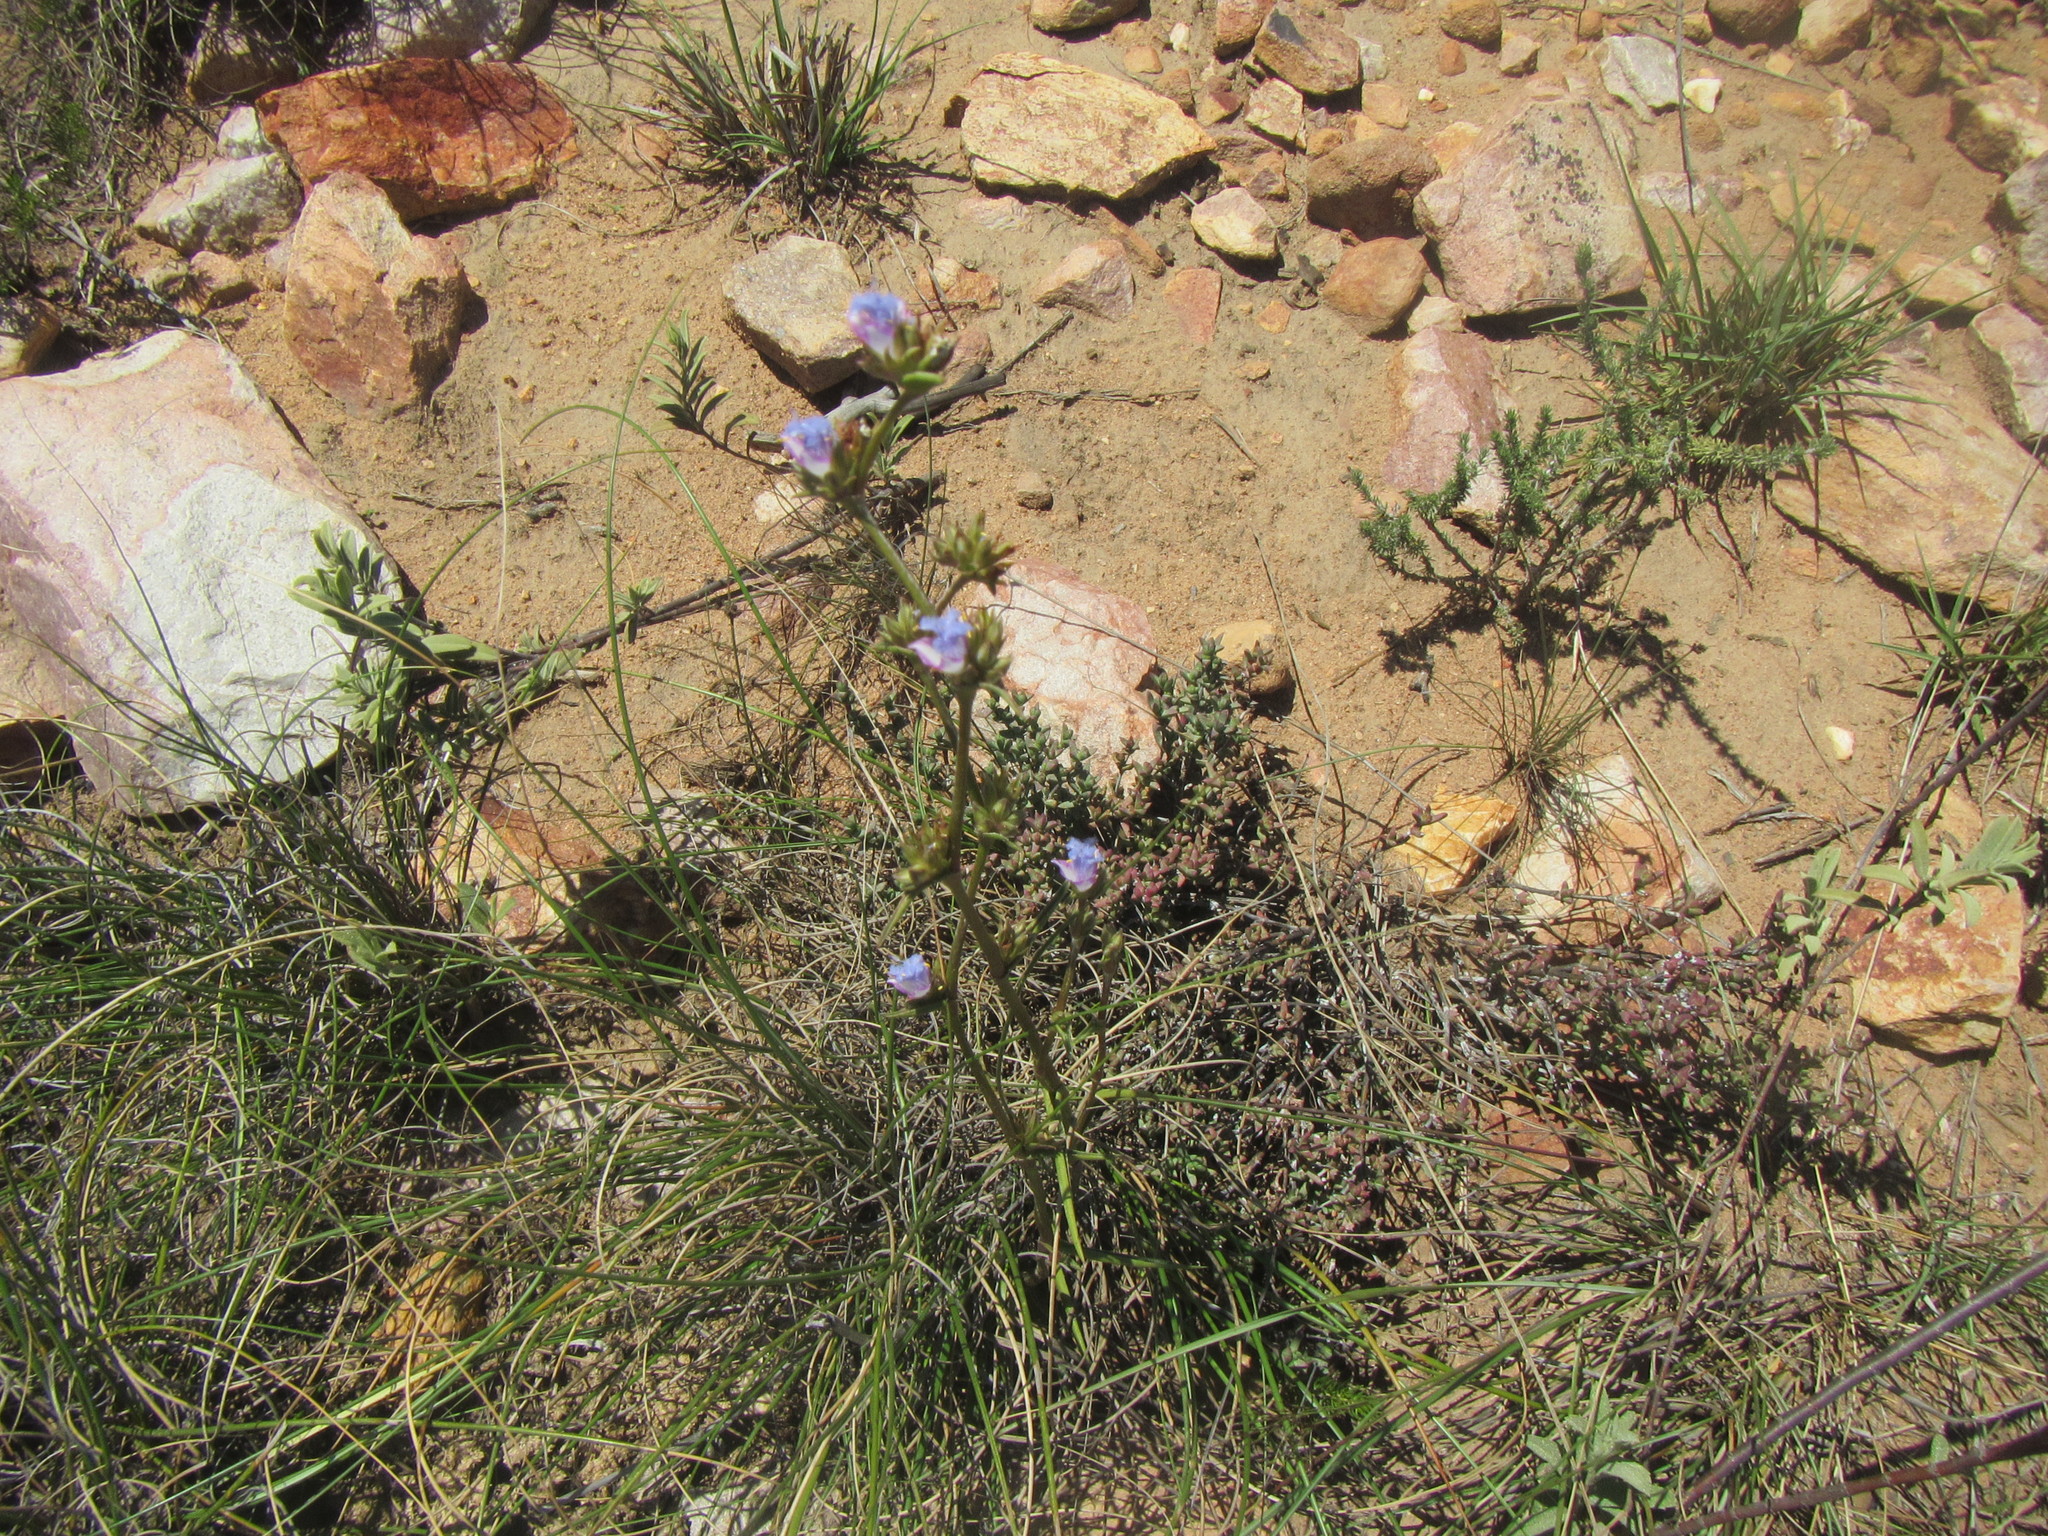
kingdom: Plantae
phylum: Tracheophyta
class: Liliopsida
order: Commelinales
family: Commelinaceae
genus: Cyanotis
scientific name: Cyanotis speciosa
